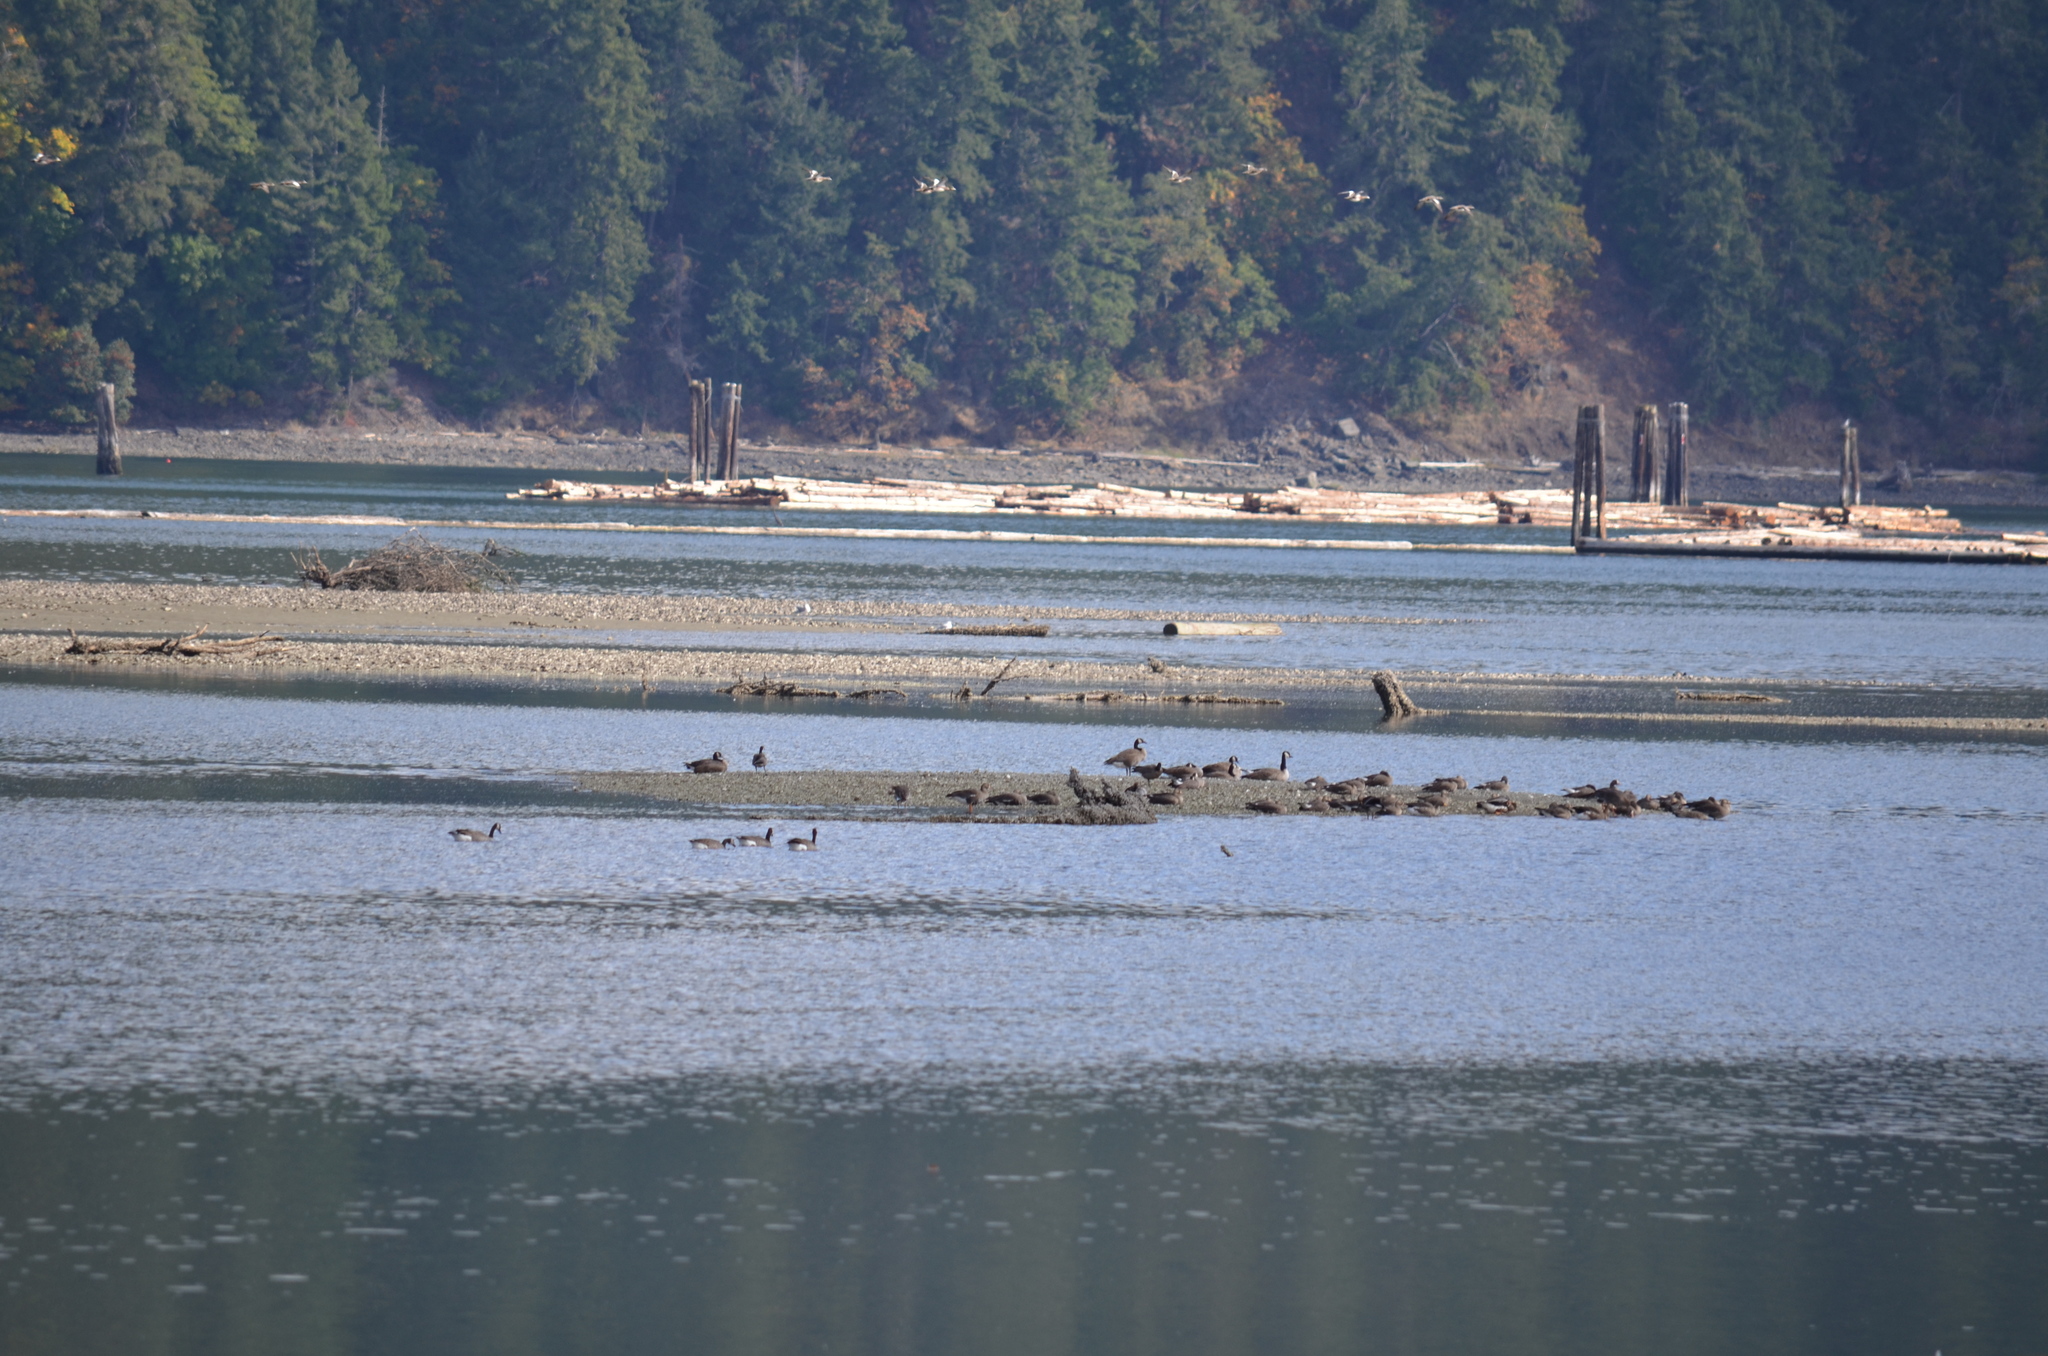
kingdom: Animalia
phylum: Chordata
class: Aves
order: Anseriformes
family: Anatidae
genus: Anser
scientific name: Anser albifrons
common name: Greater white-fronted goose
